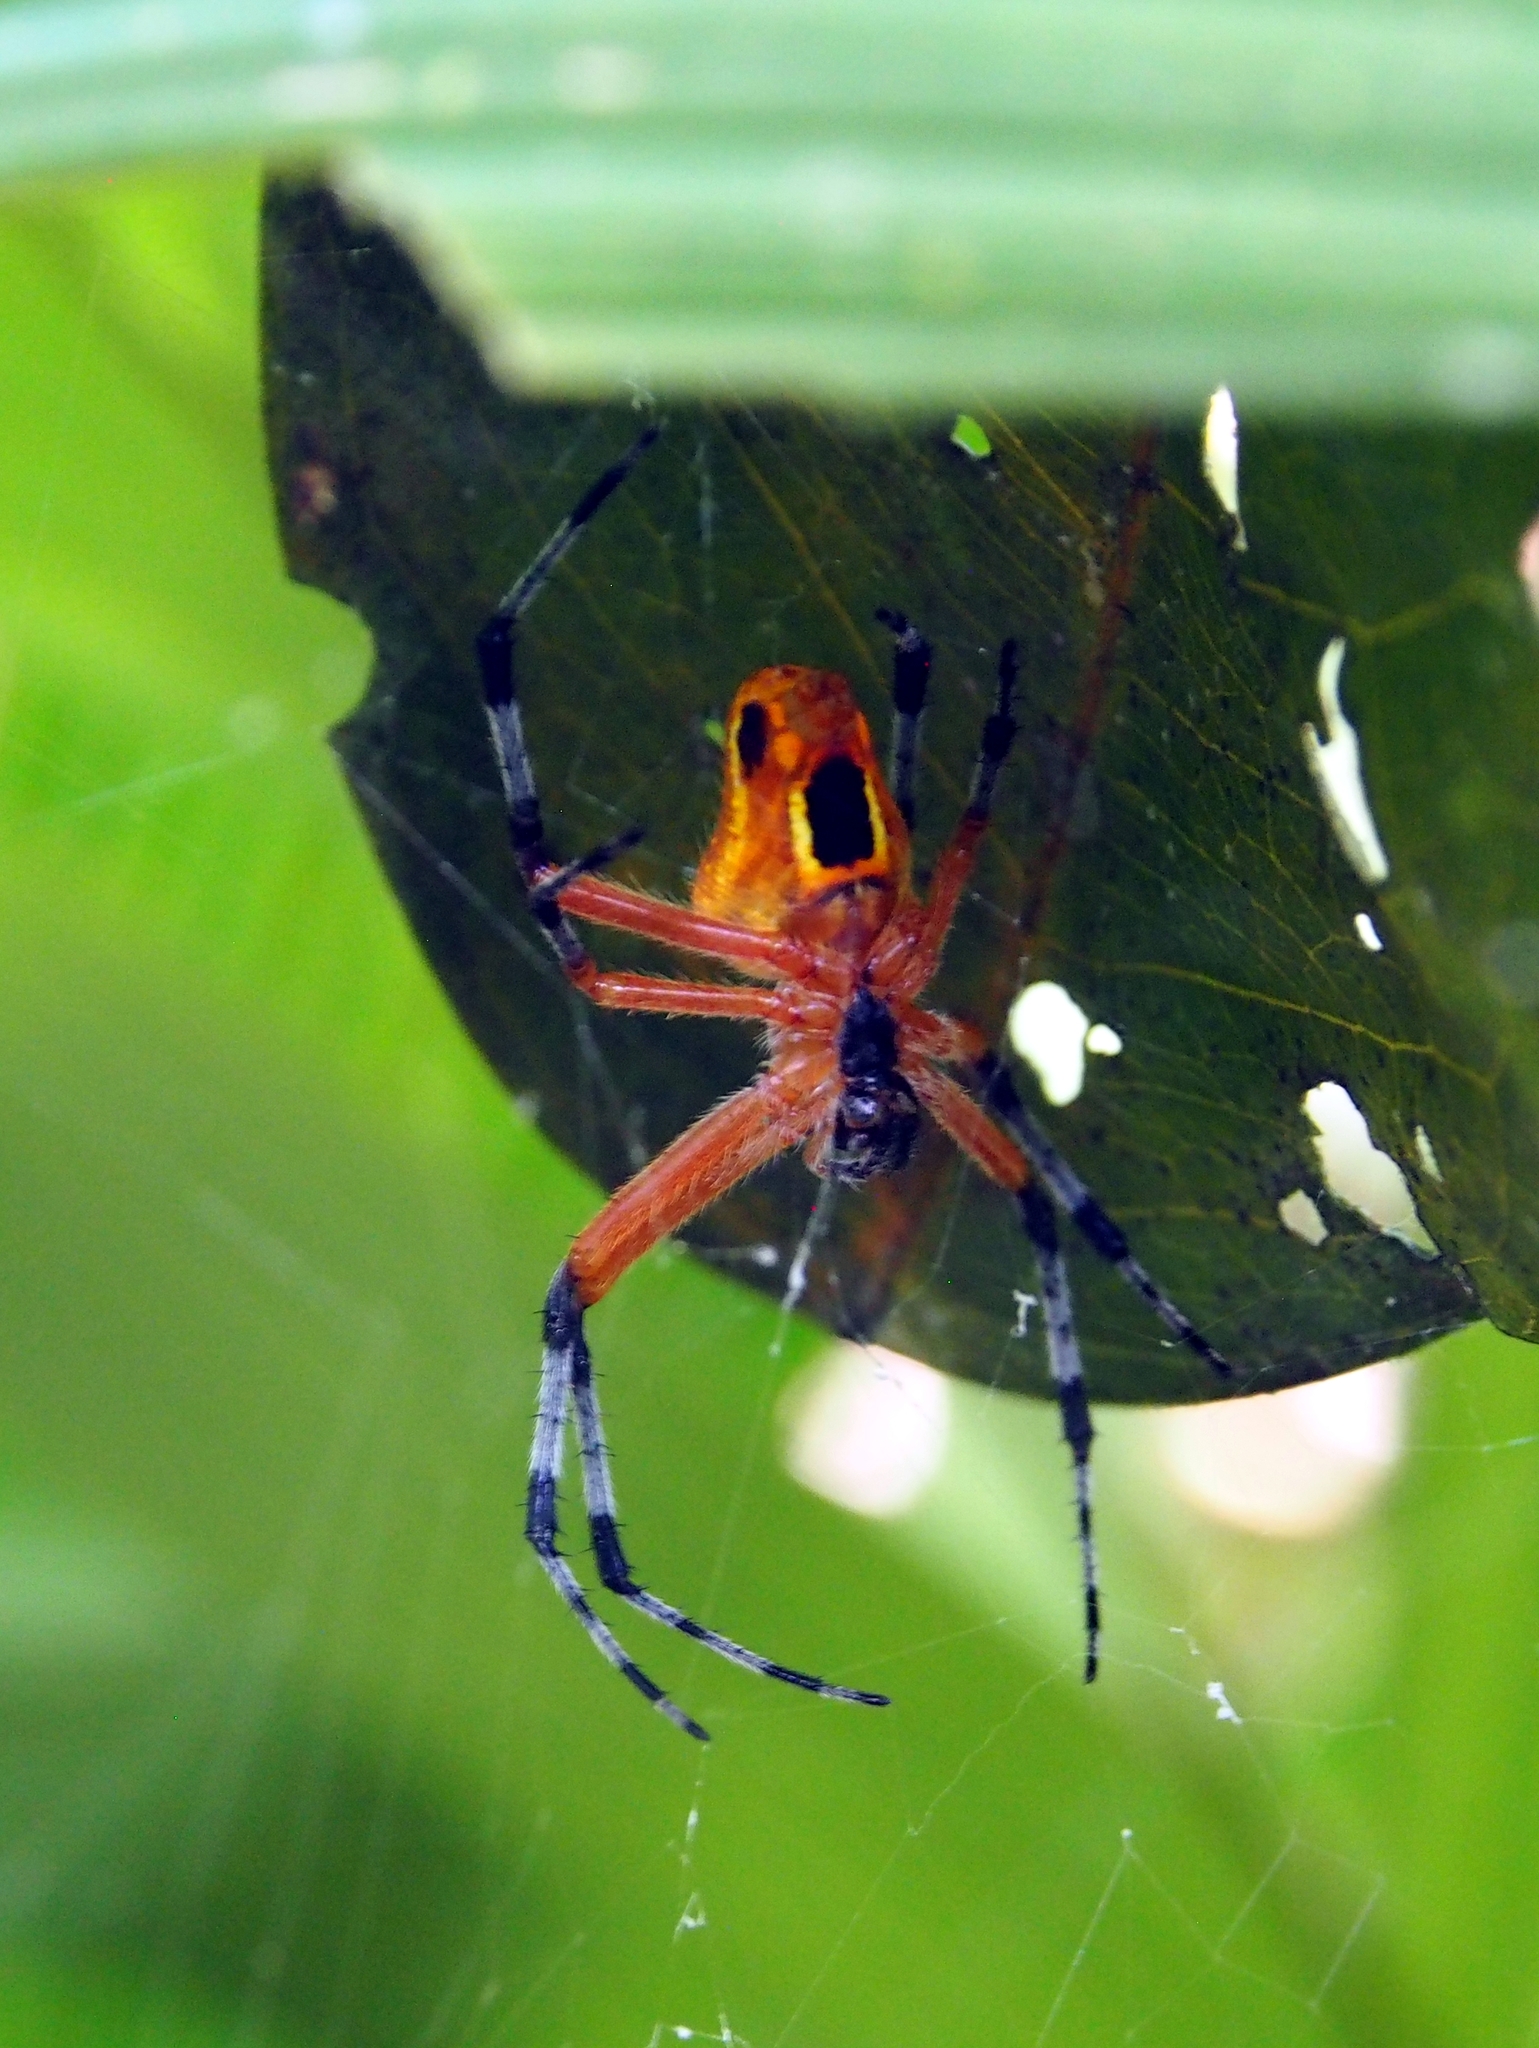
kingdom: Animalia
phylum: Arthropoda
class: Arachnida
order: Araneae
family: Araneidae
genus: Eriophora
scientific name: Eriophora nephiloides
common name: Orb weavers
